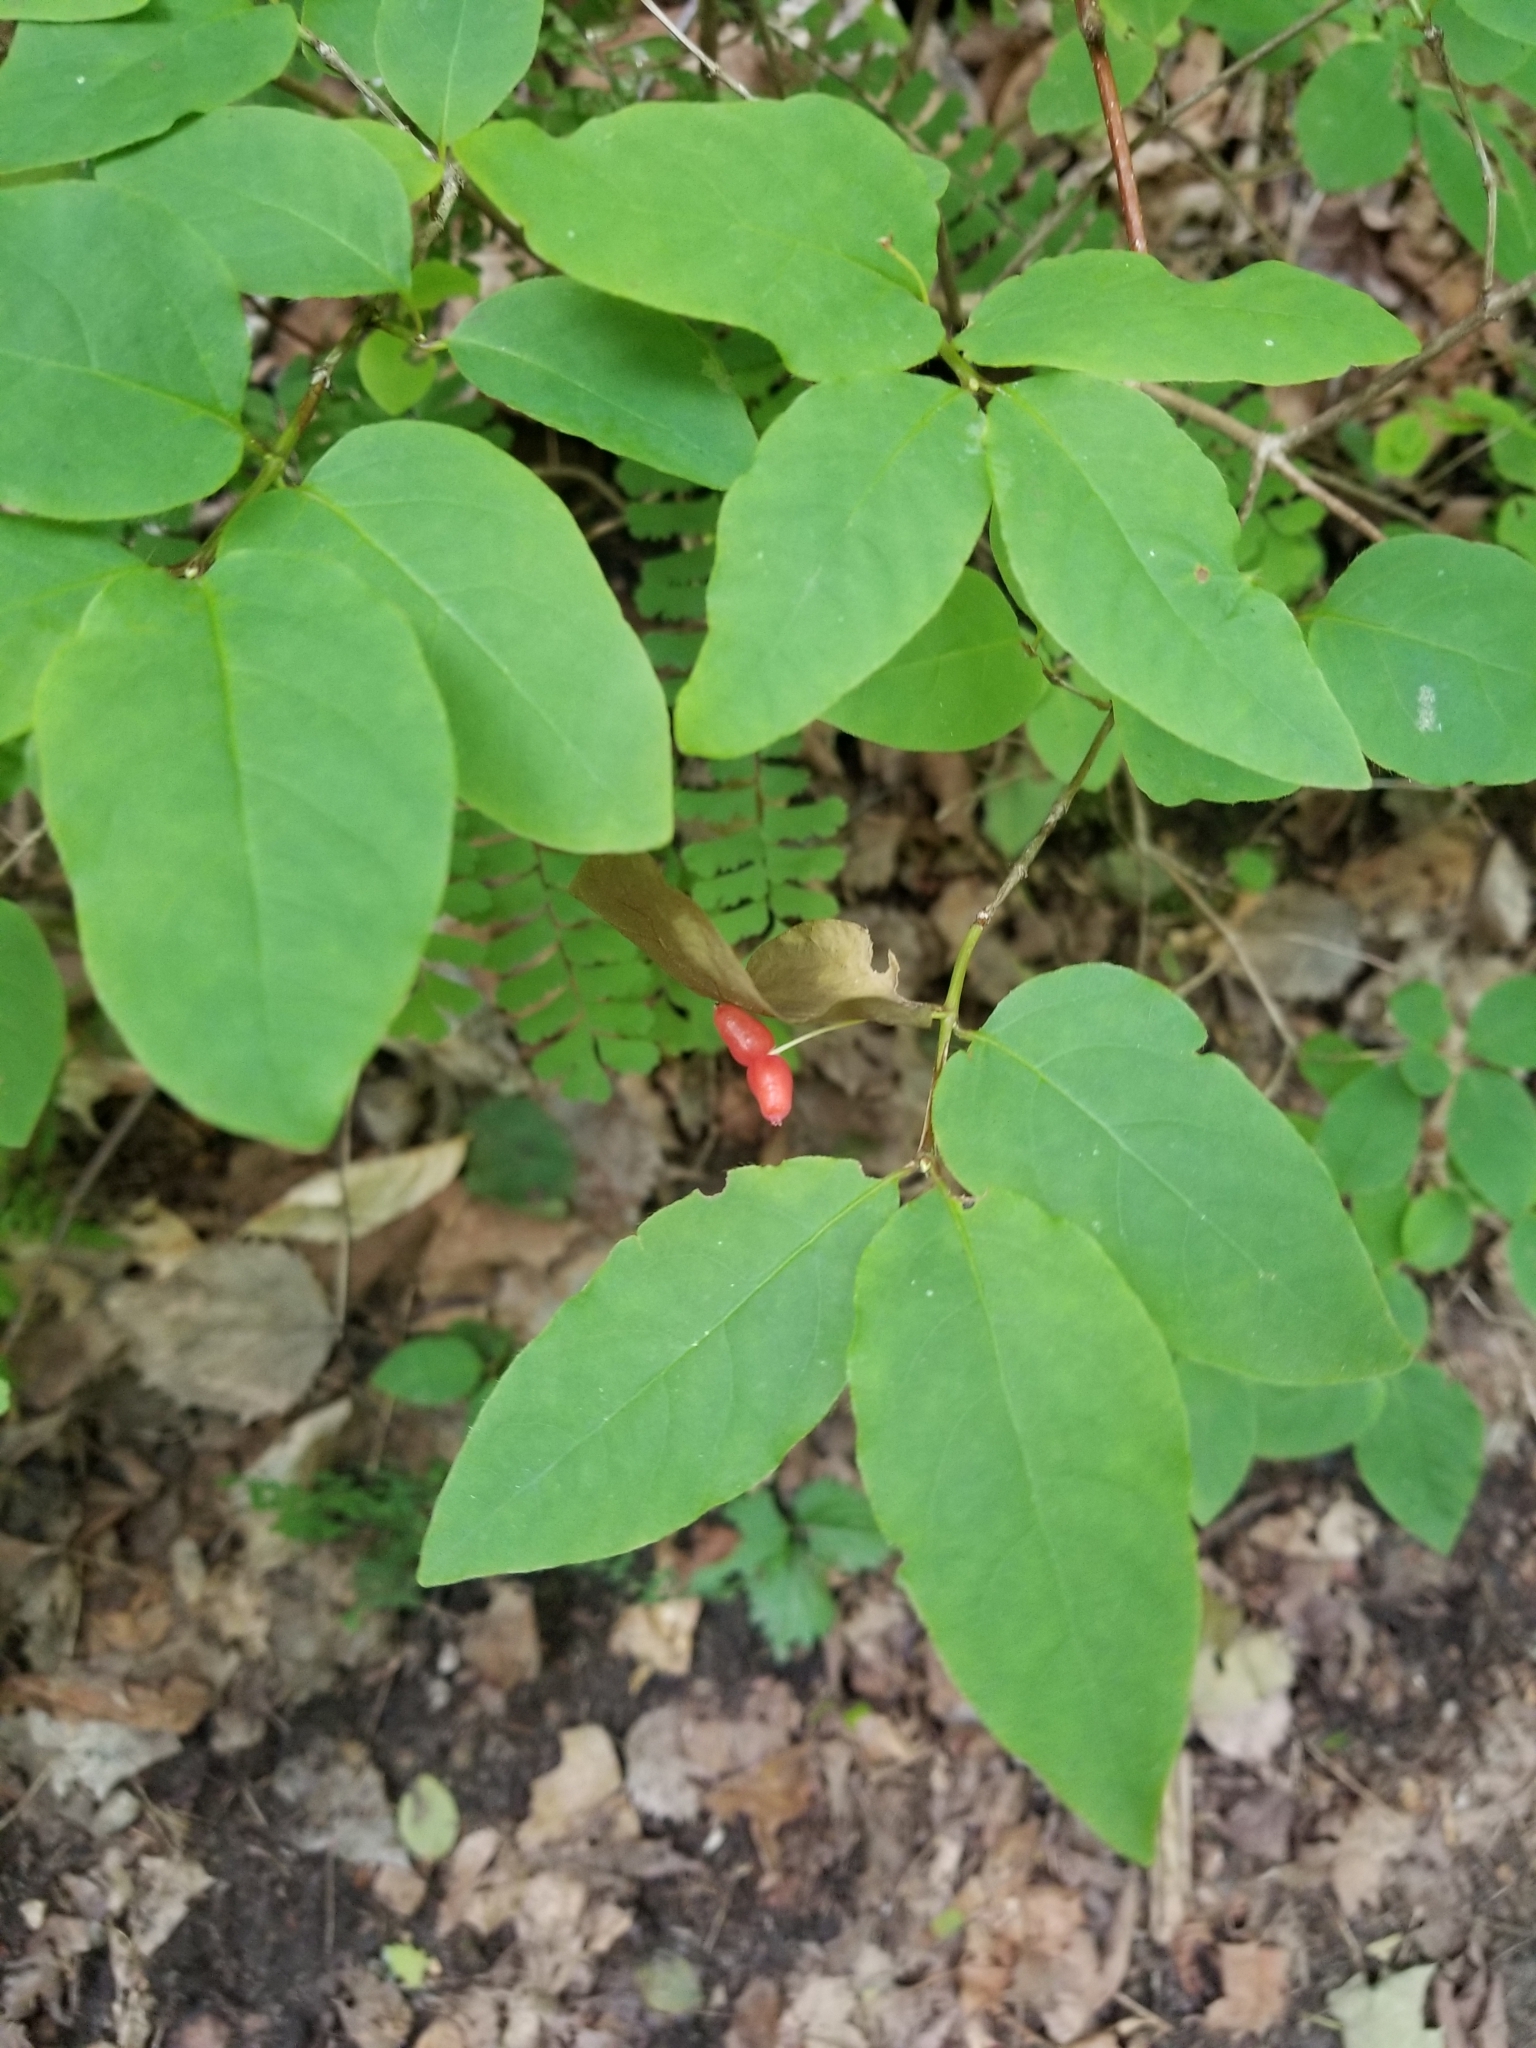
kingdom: Plantae
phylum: Tracheophyta
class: Magnoliopsida
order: Dipsacales
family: Caprifoliaceae
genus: Lonicera
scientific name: Lonicera canadensis
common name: American fly-honeysuckle
